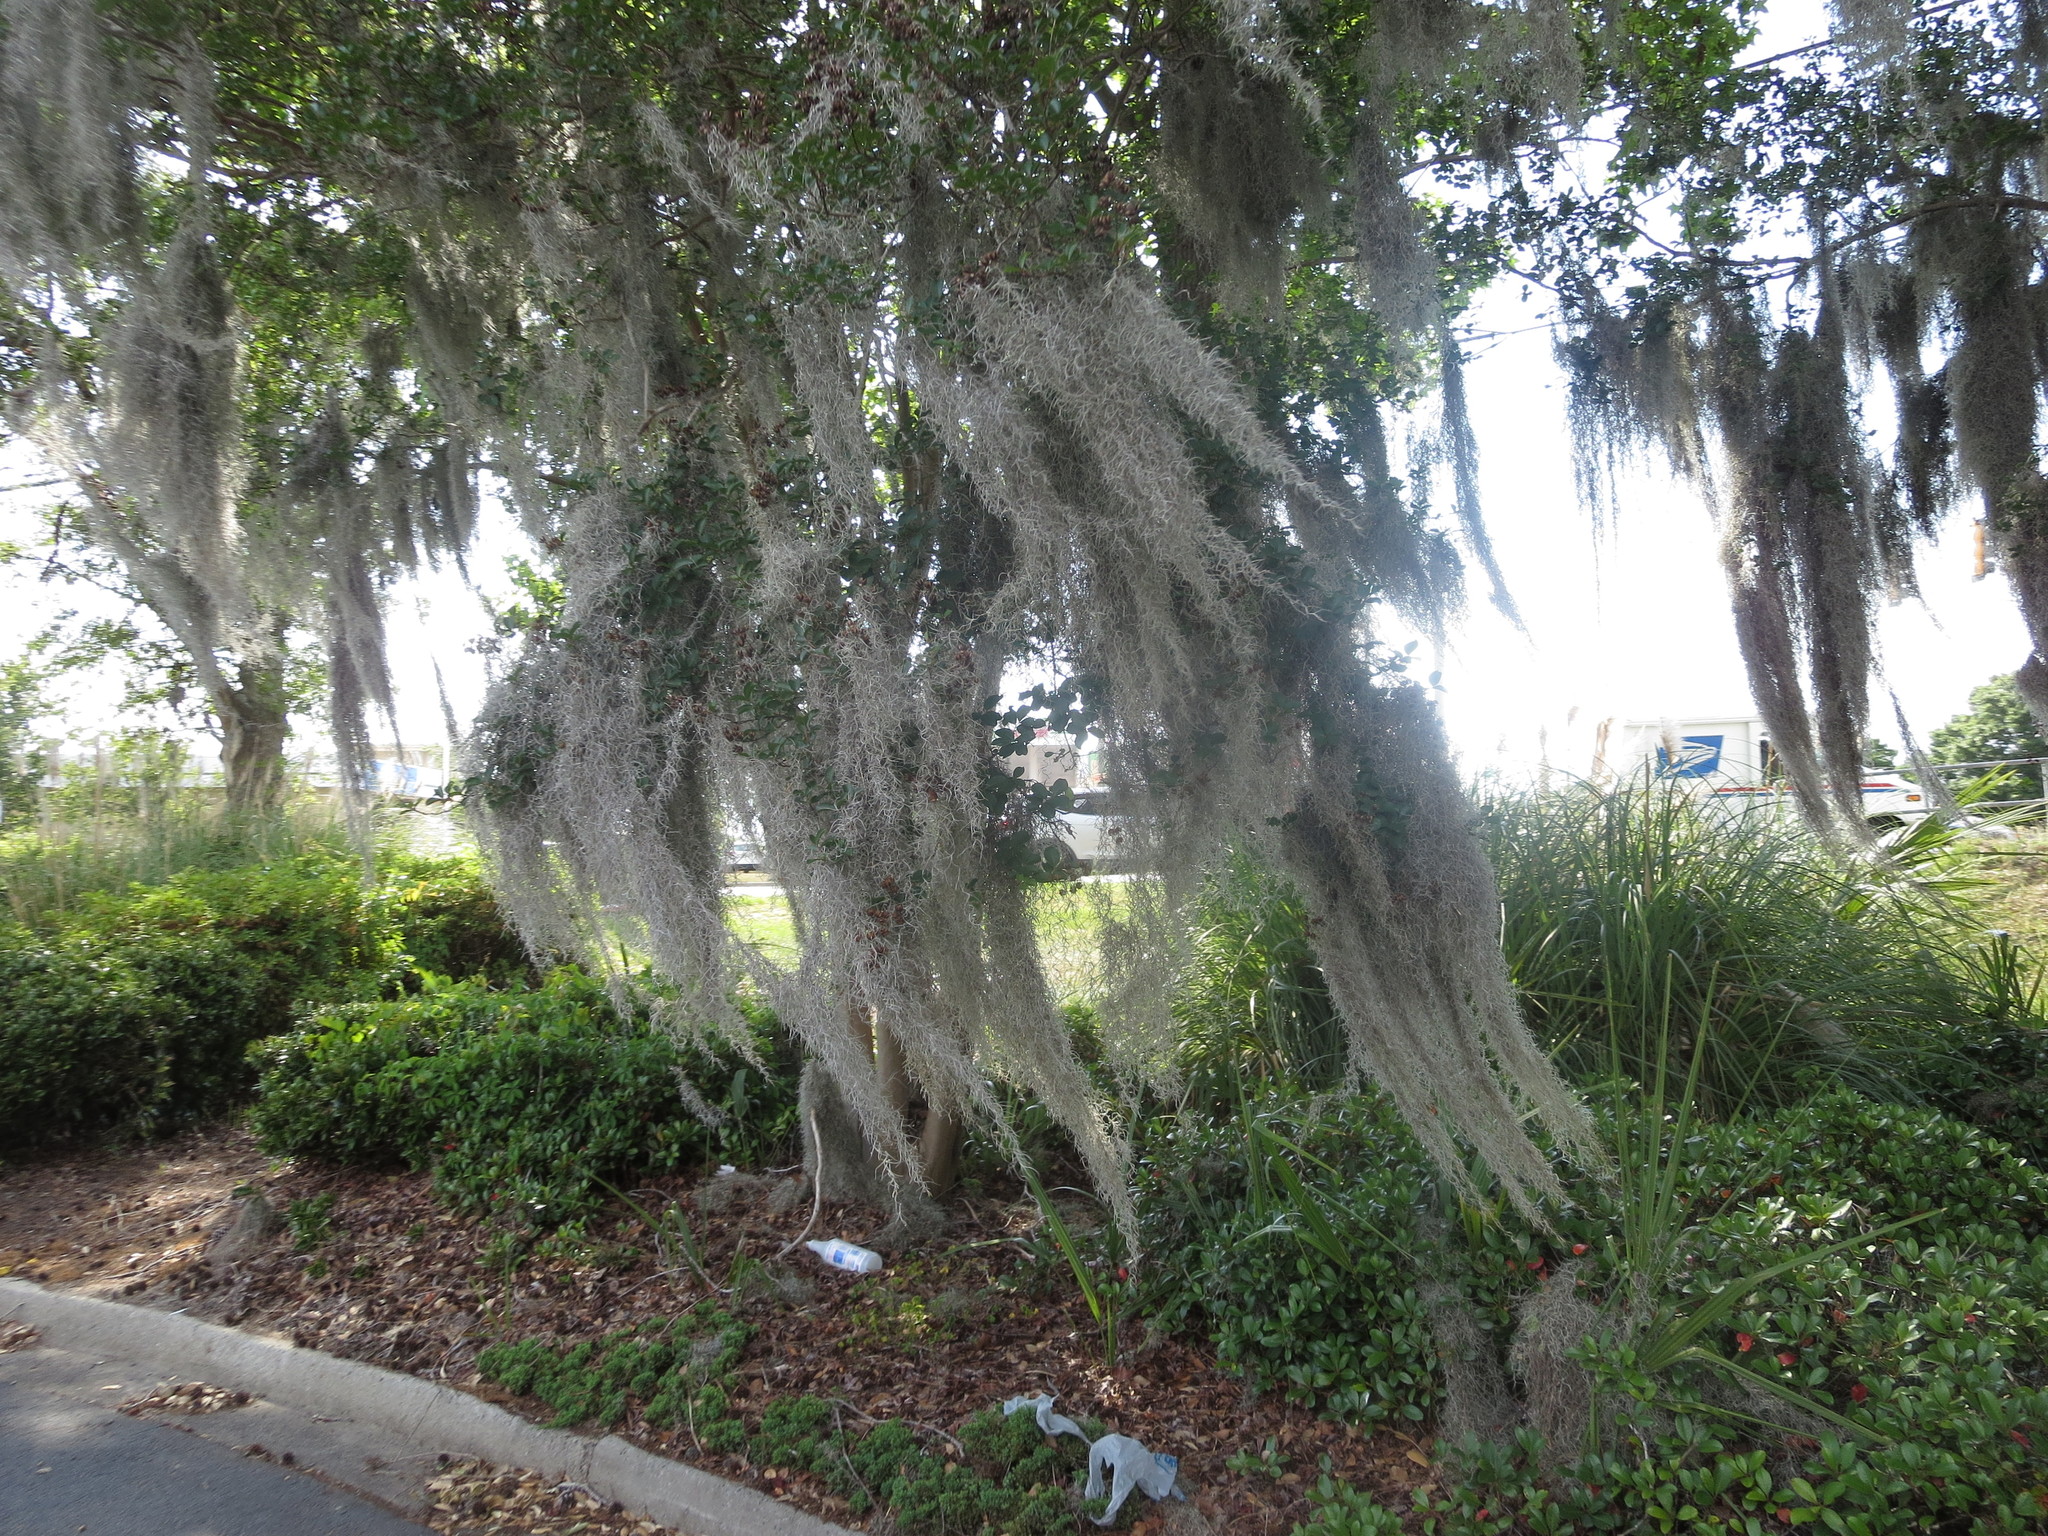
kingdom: Plantae
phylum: Tracheophyta
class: Liliopsida
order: Poales
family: Bromeliaceae
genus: Tillandsia
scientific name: Tillandsia usneoides
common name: Spanish moss
